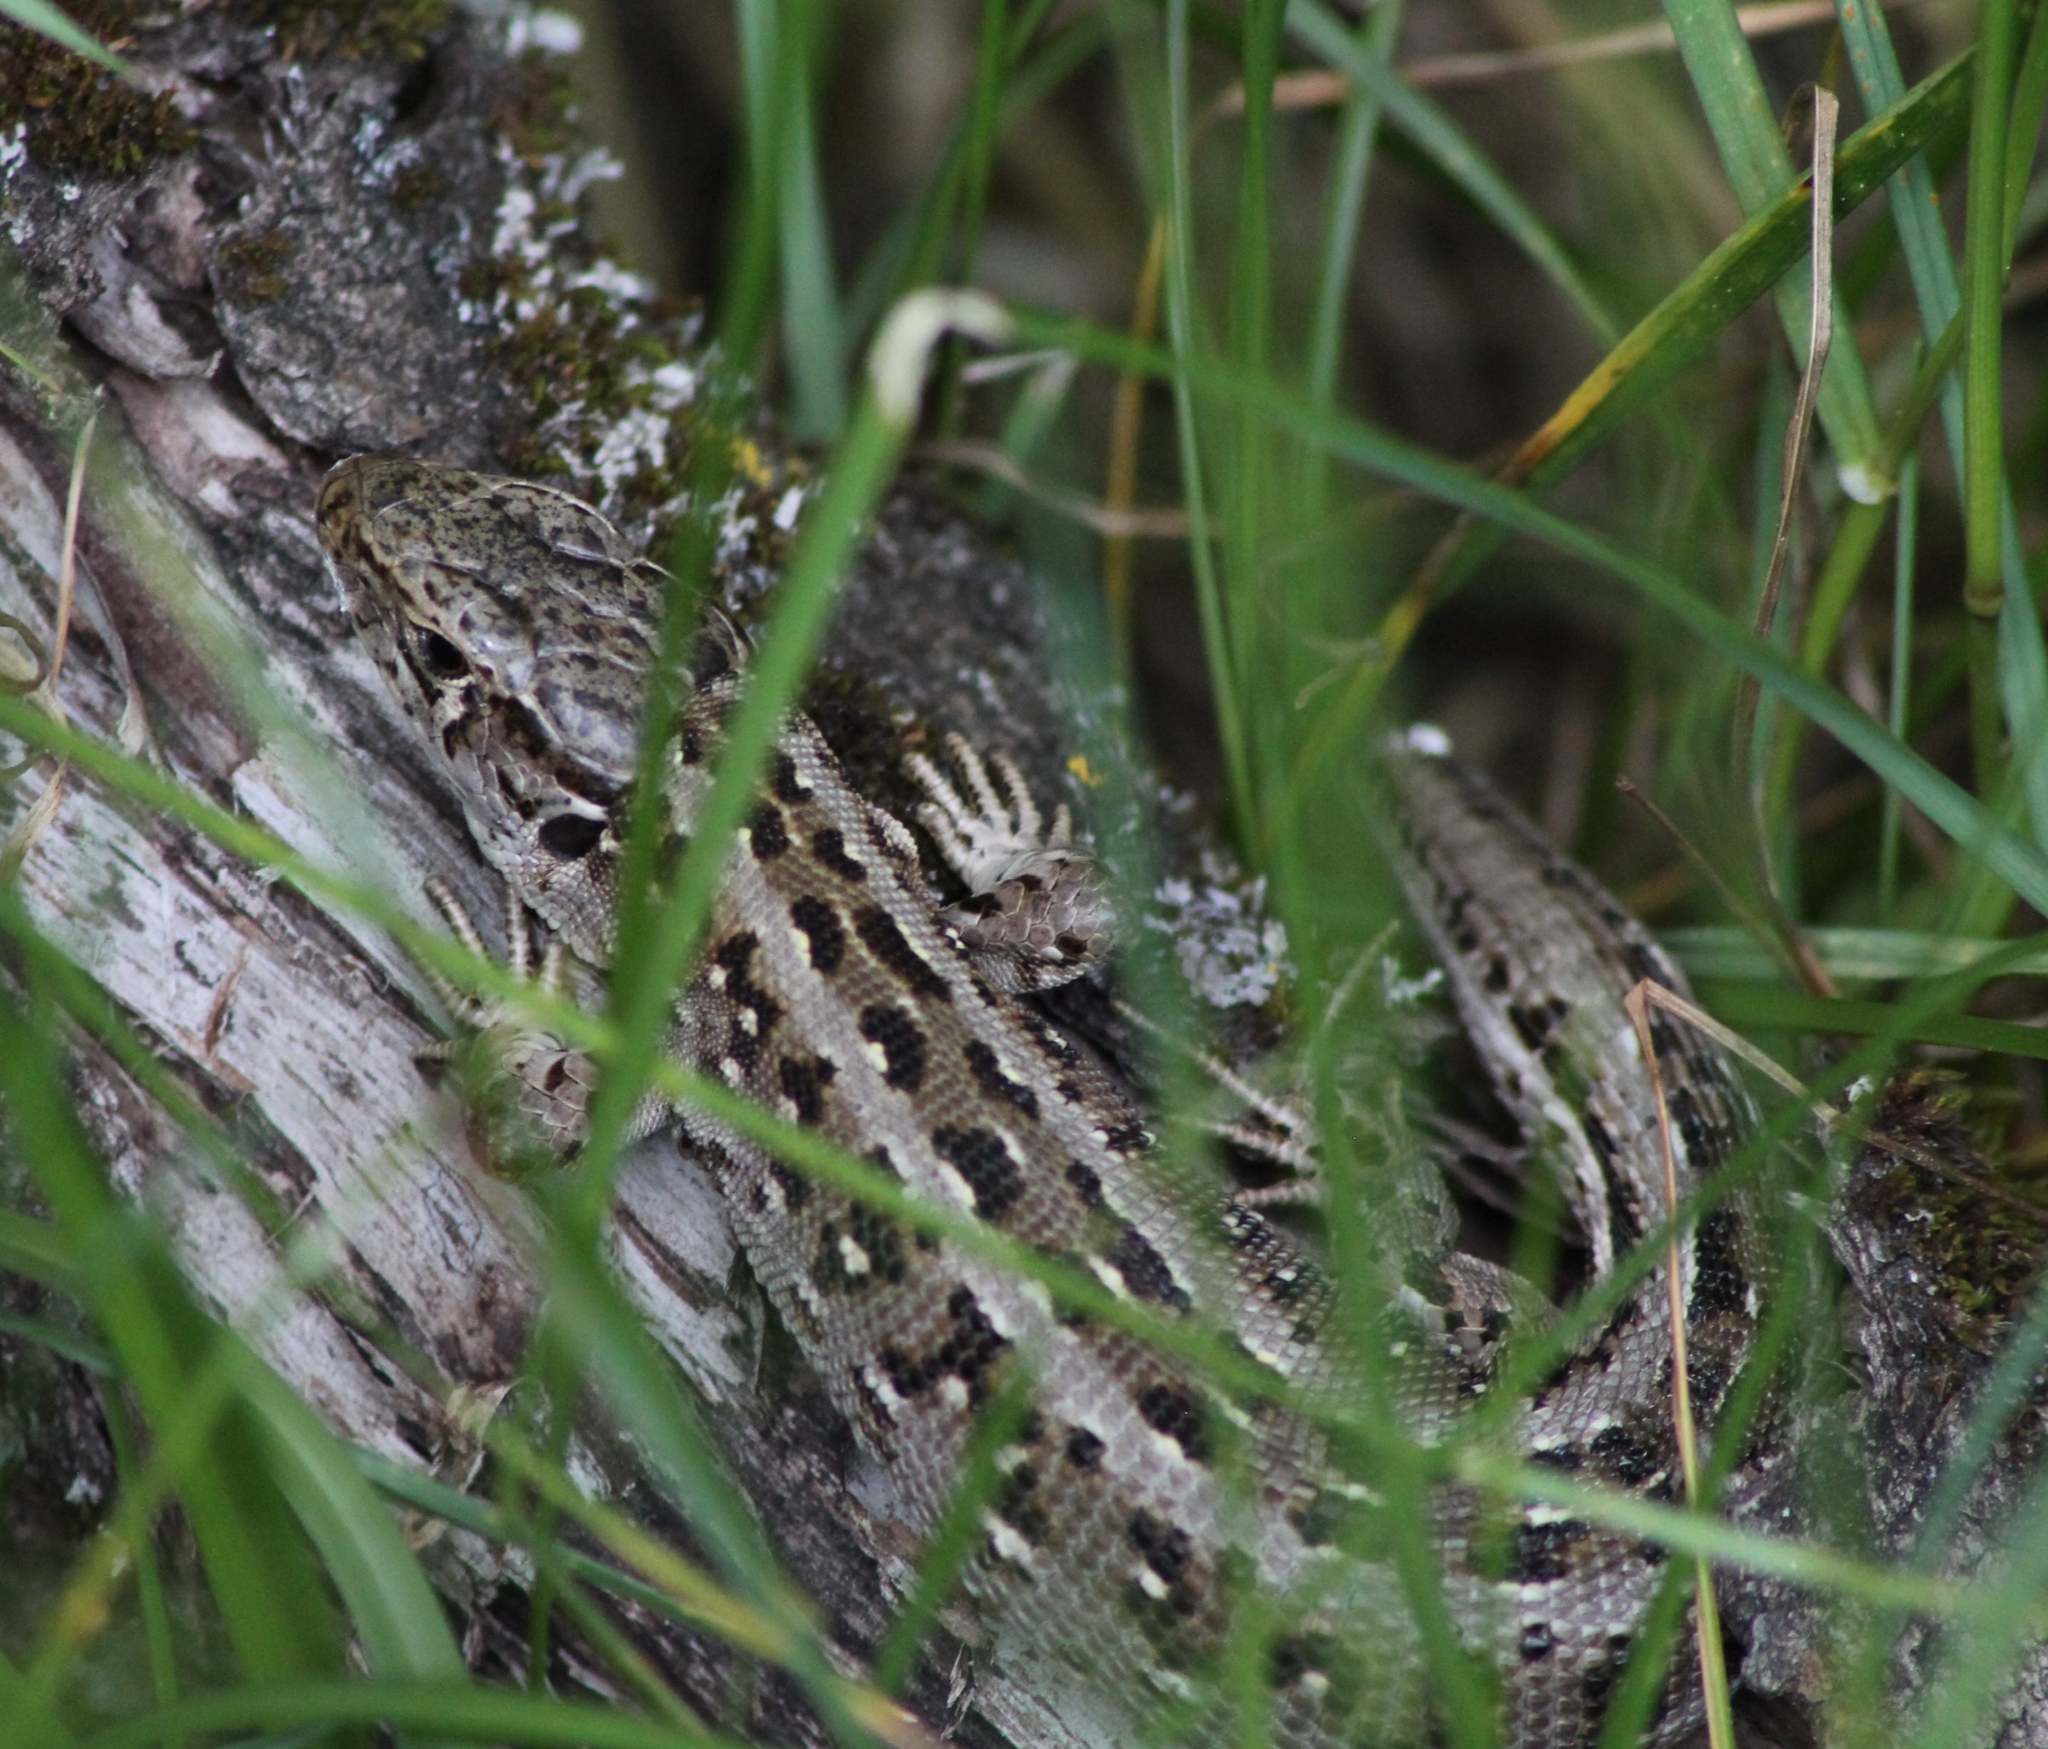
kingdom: Animalia
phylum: Chordata
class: Squamata
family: Lacertidae
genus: Lacerta
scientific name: Lacerta agilis
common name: Sand lizard
